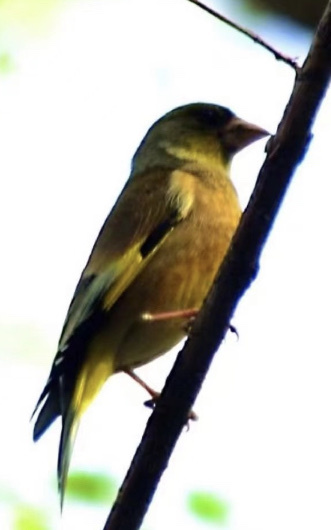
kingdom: Plantae
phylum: Tracheophyta
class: Liliopsida
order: Poales
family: Poaceae
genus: Chloris
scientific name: Chloris sinica
